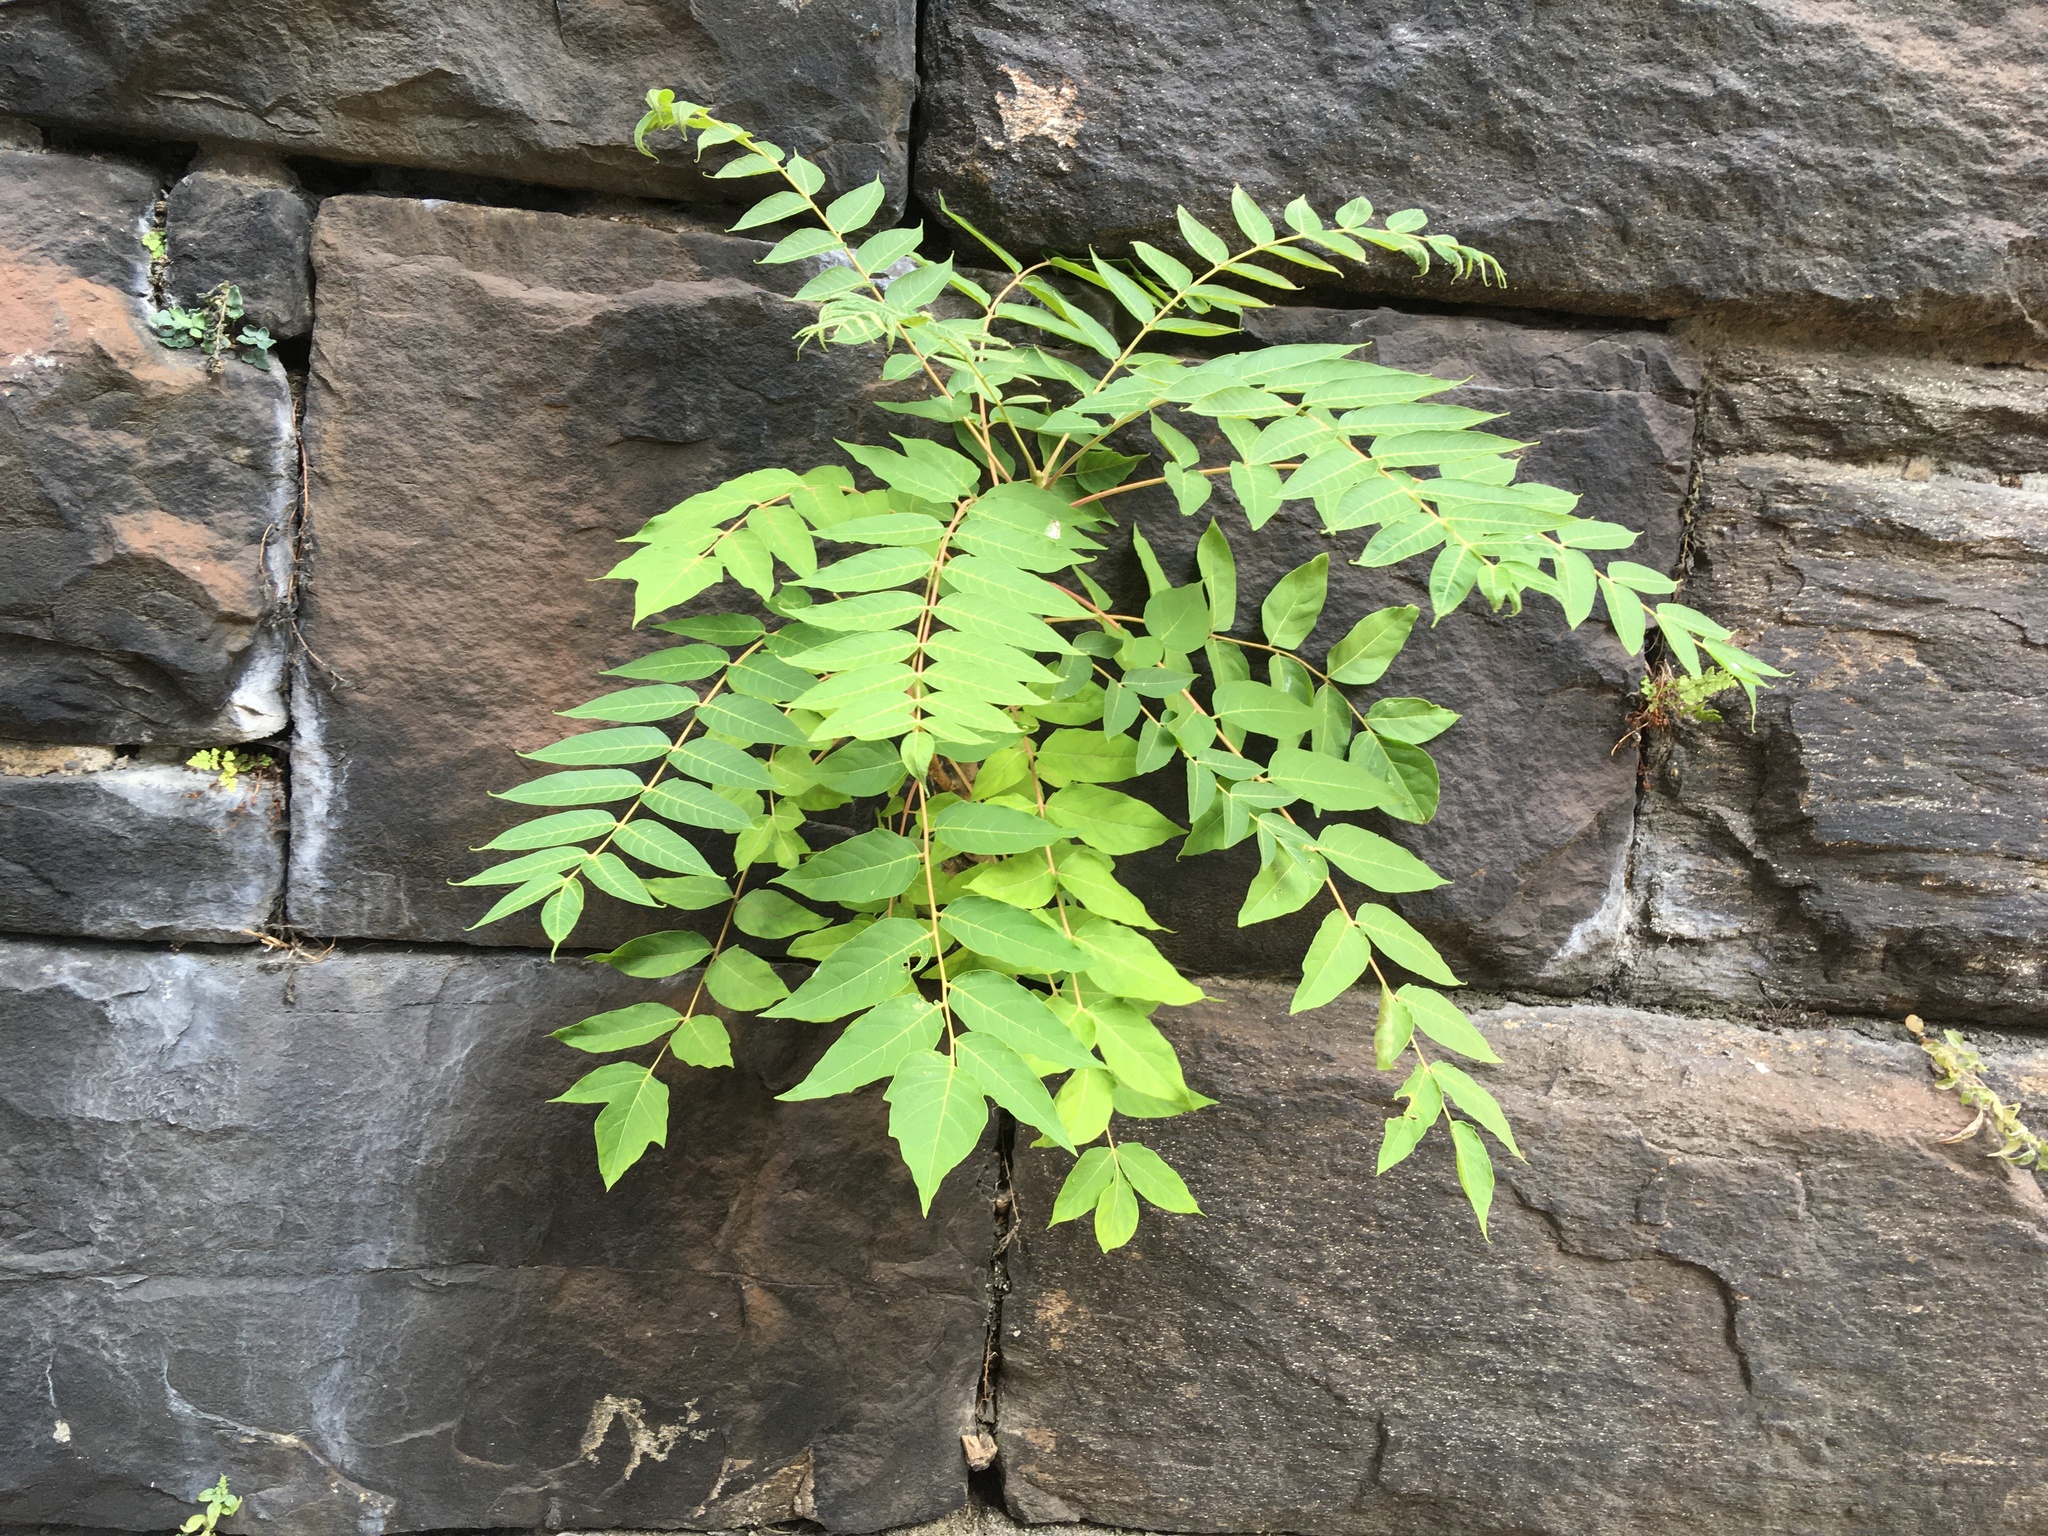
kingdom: Plantae
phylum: Tracheophyta
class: Magnoliopsida
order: Sapindales
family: Simaroubaceae
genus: Ailanthus
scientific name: Ailanthus altissima
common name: Tree-of-heaven
